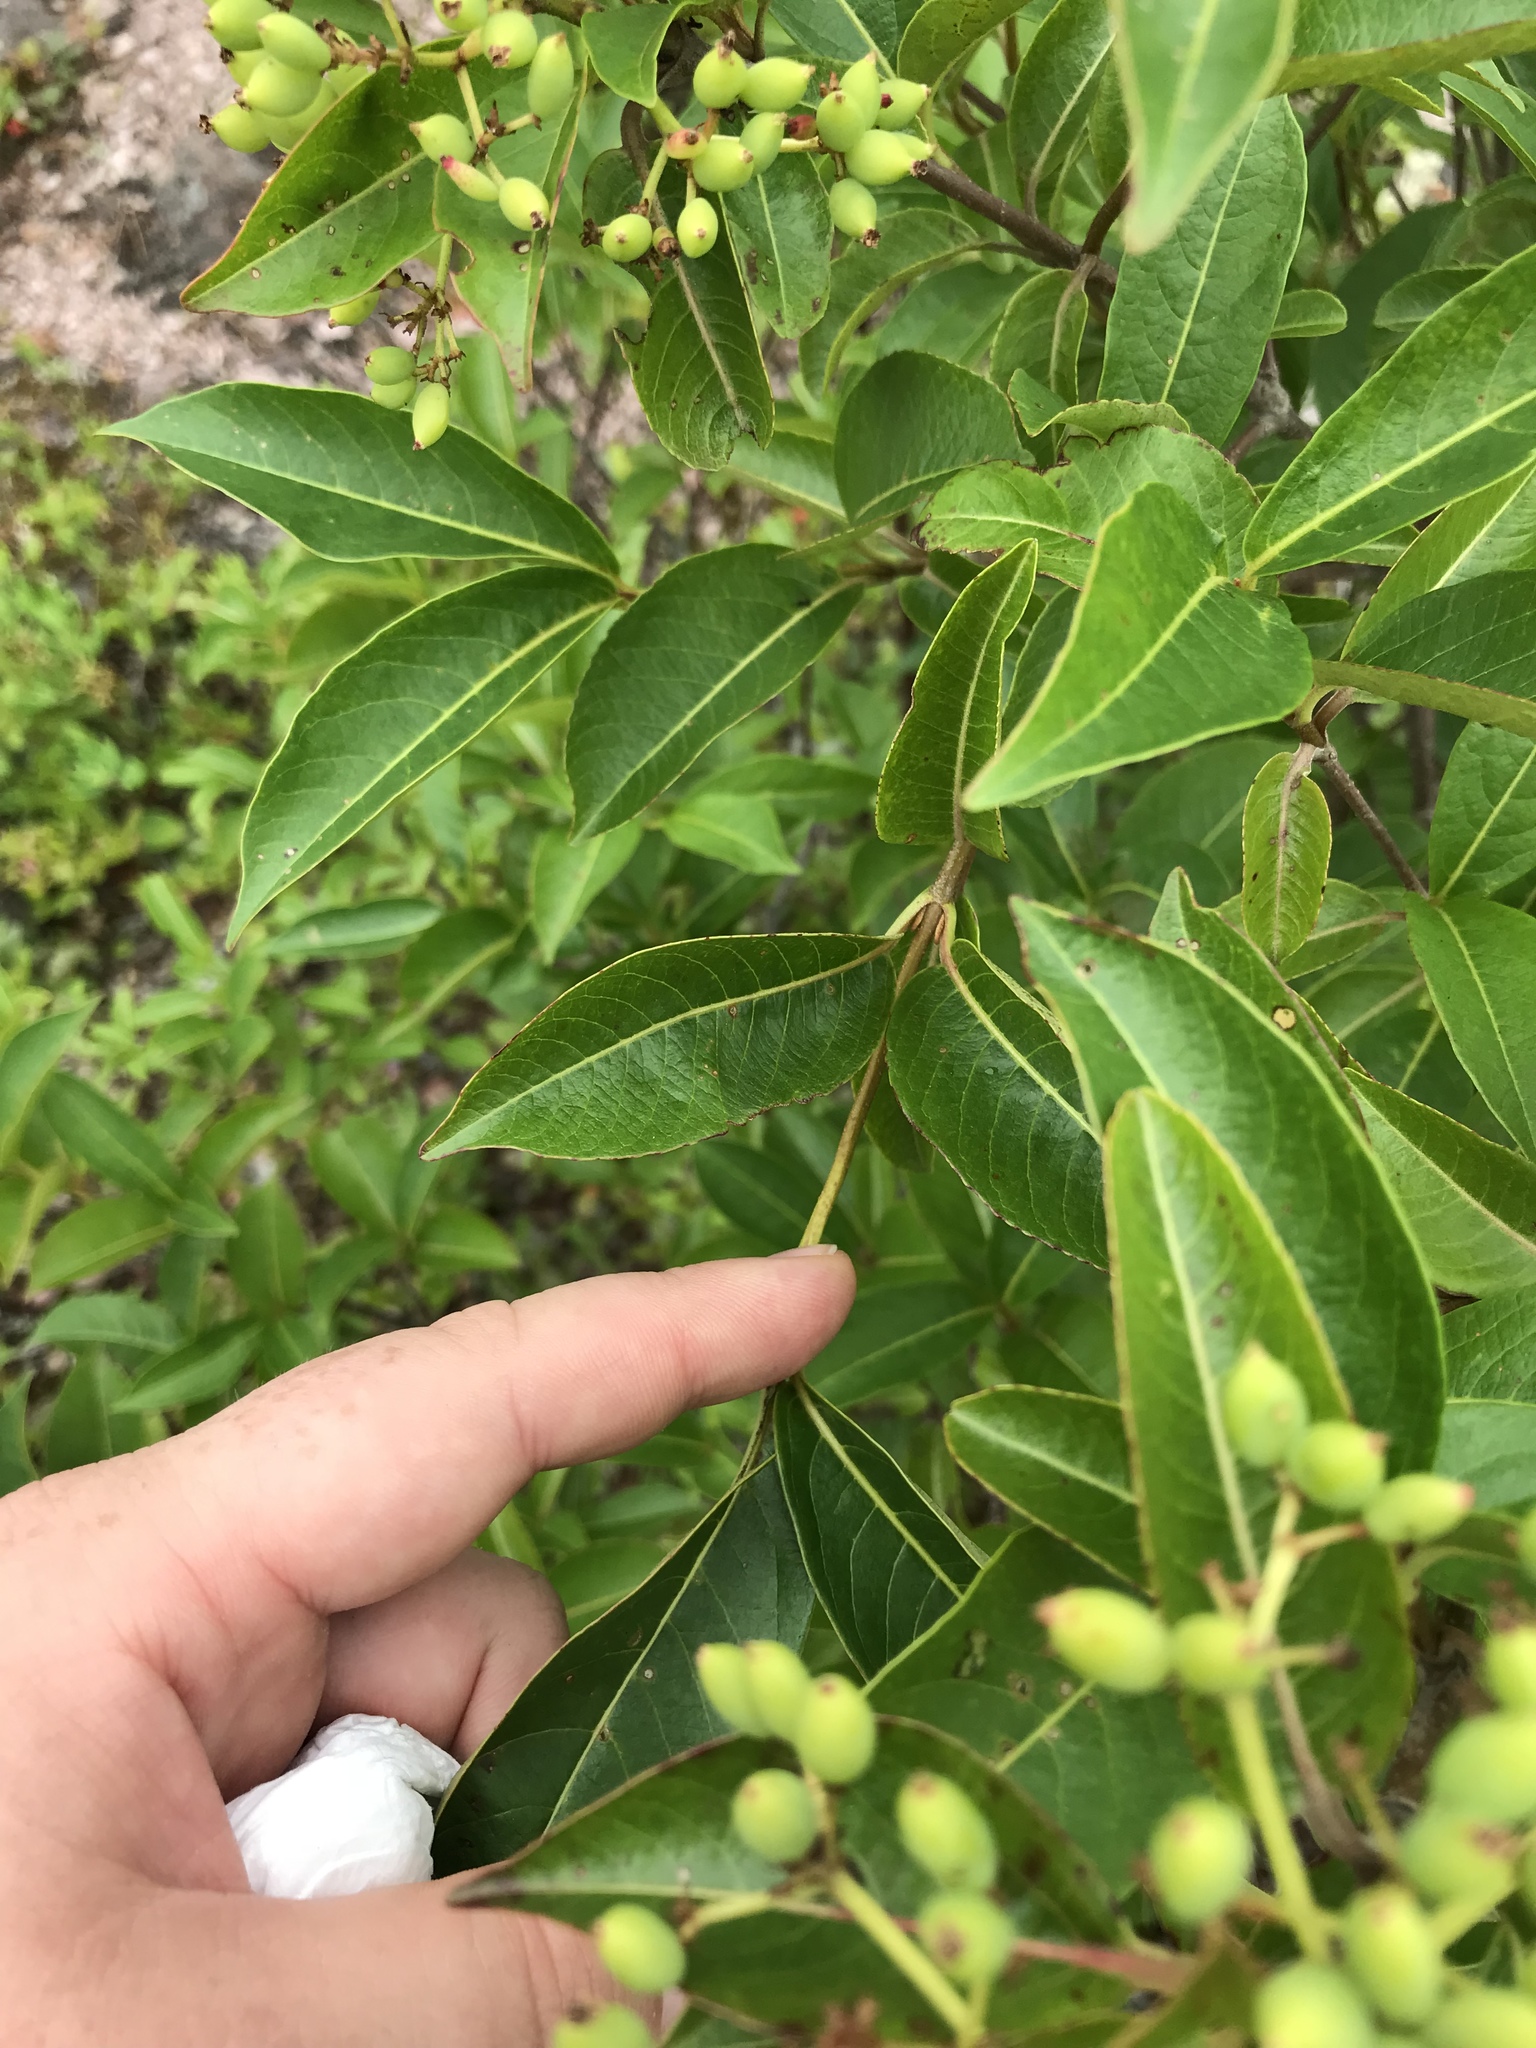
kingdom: Plantae
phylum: Tracheophyta
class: Magnoliopsida
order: Dipsacales
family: Viburnaceae
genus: Viburnum
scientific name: Viburnum cassinoides
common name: Swamp haw
